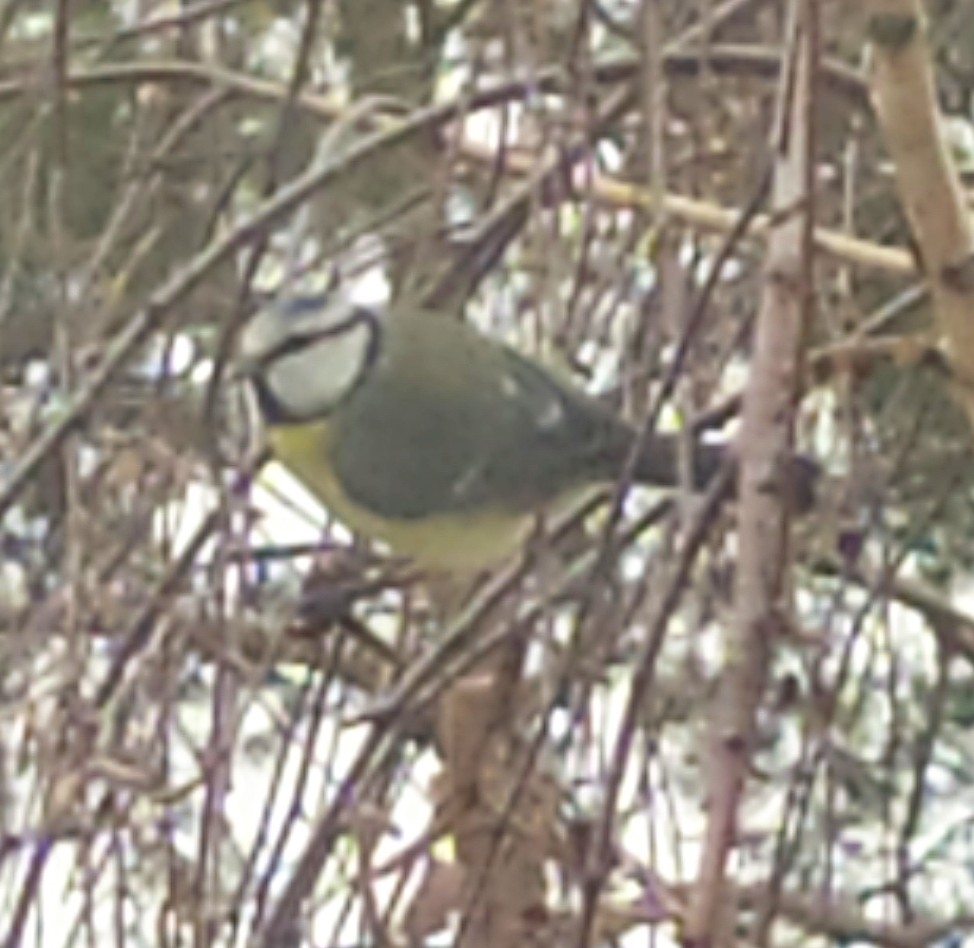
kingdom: Animalia
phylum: Chordata
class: Aves
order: Passeriformes
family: Paridae
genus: Cyanistes
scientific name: Cyanistes caeruleus
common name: Eurasian blue tit
